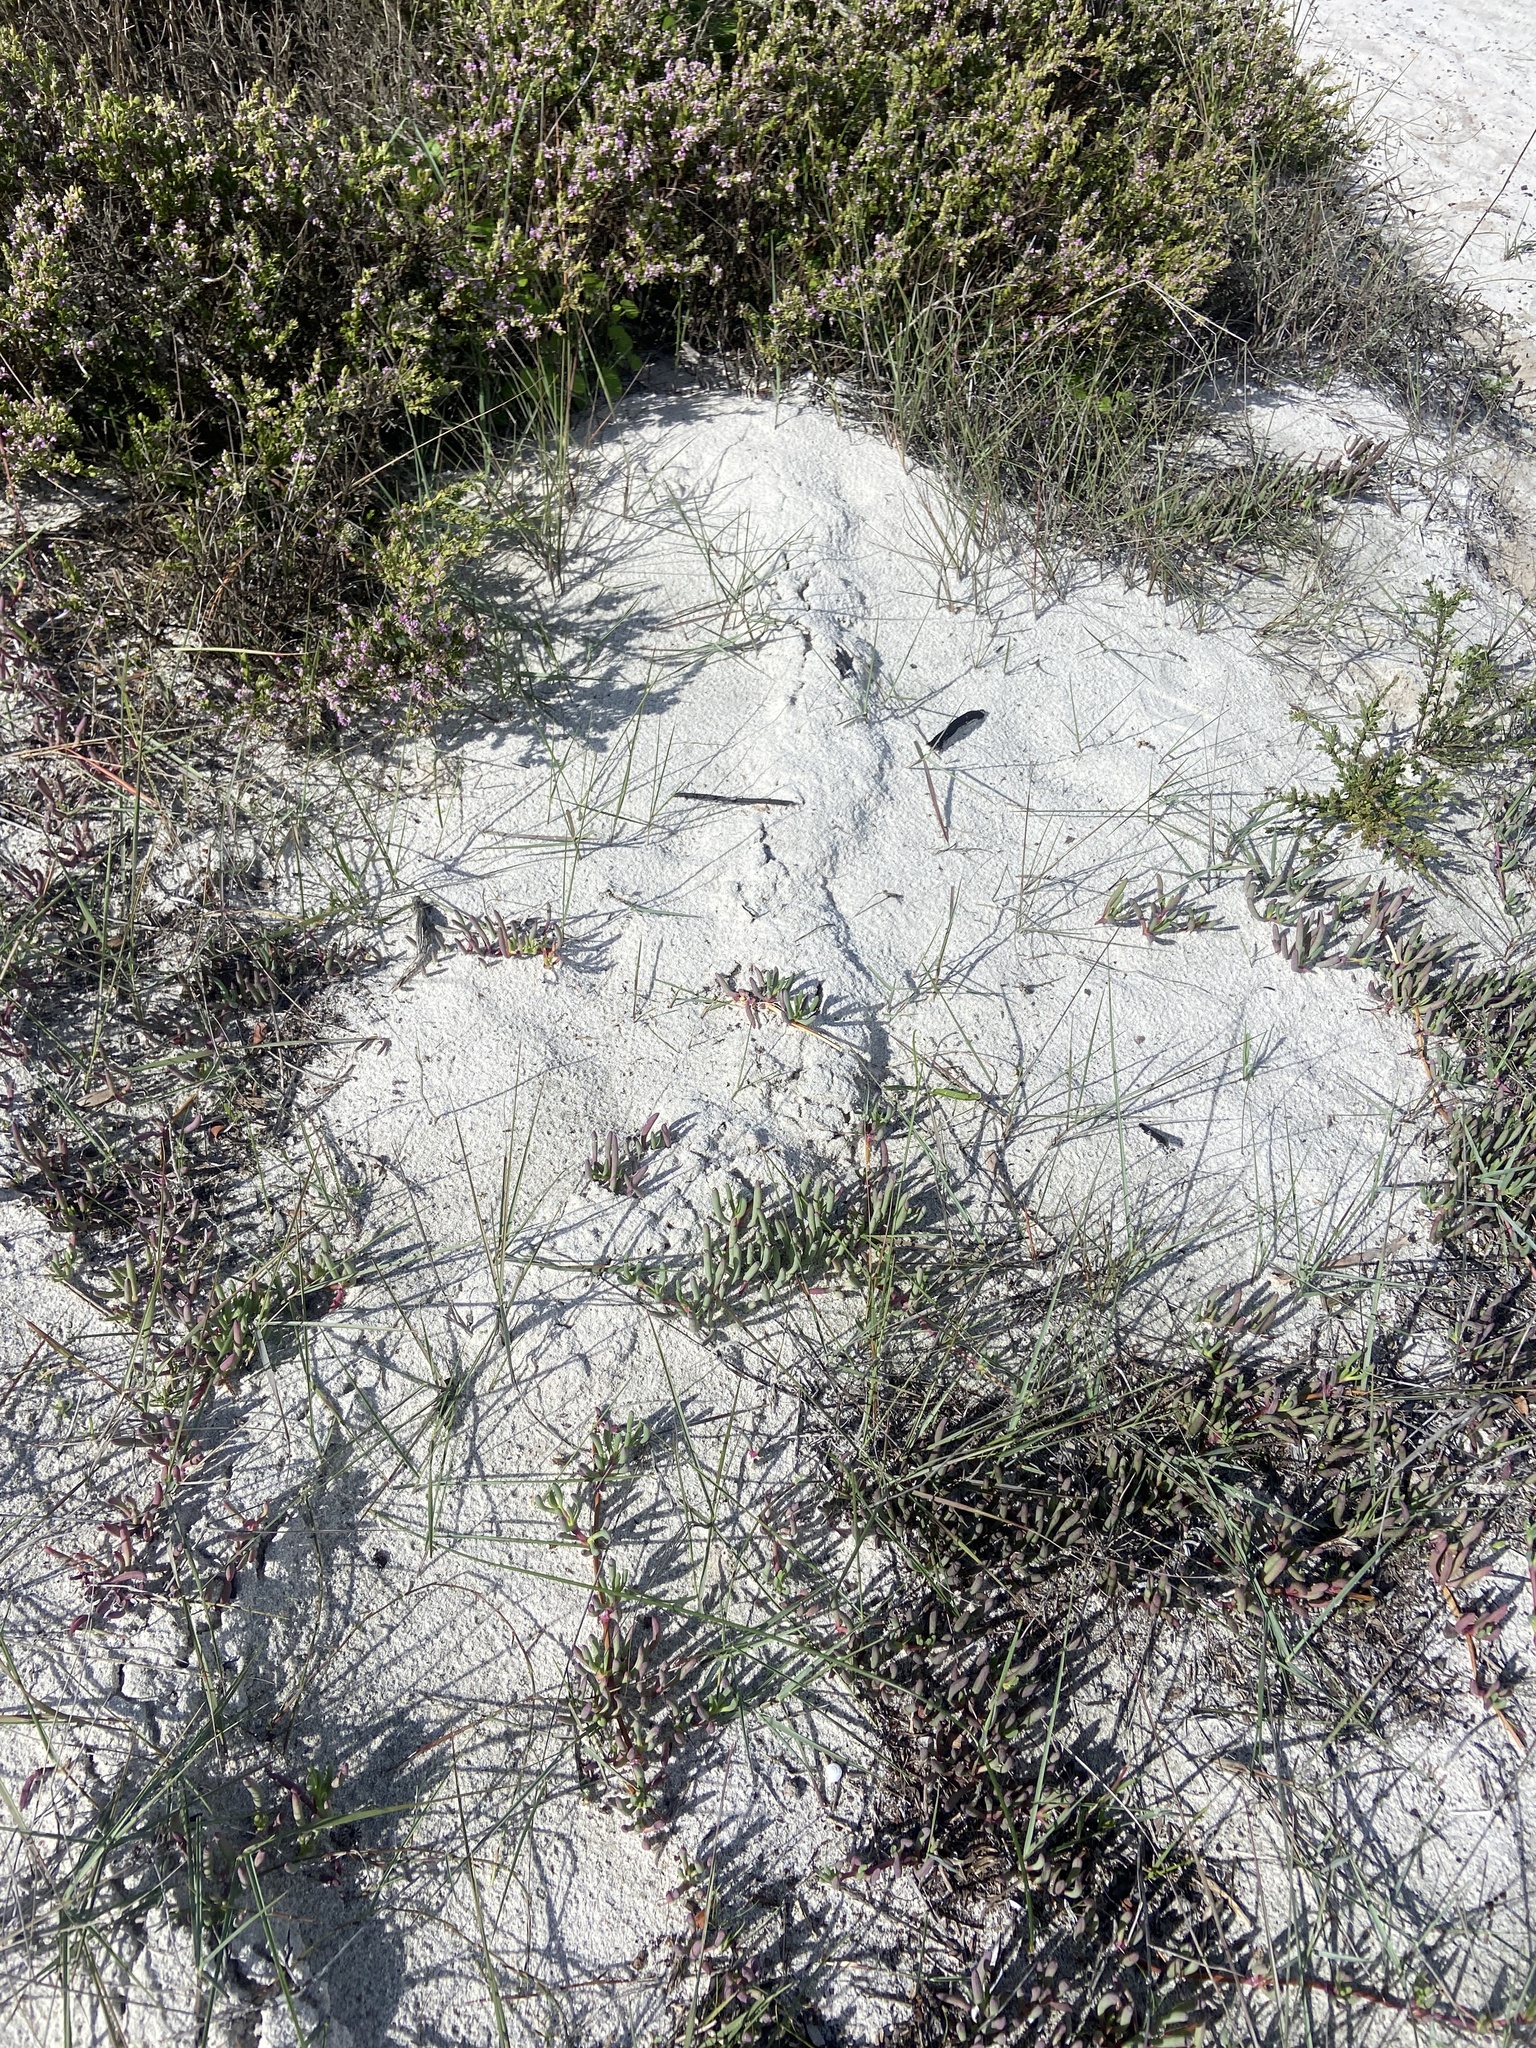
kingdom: Animalia
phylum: Chordata
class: Mammalia
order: Afrosoricida
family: Chrysochloridae
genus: Chrysochloris
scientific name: Chrysochloris asiatica
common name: Cape golden mole
